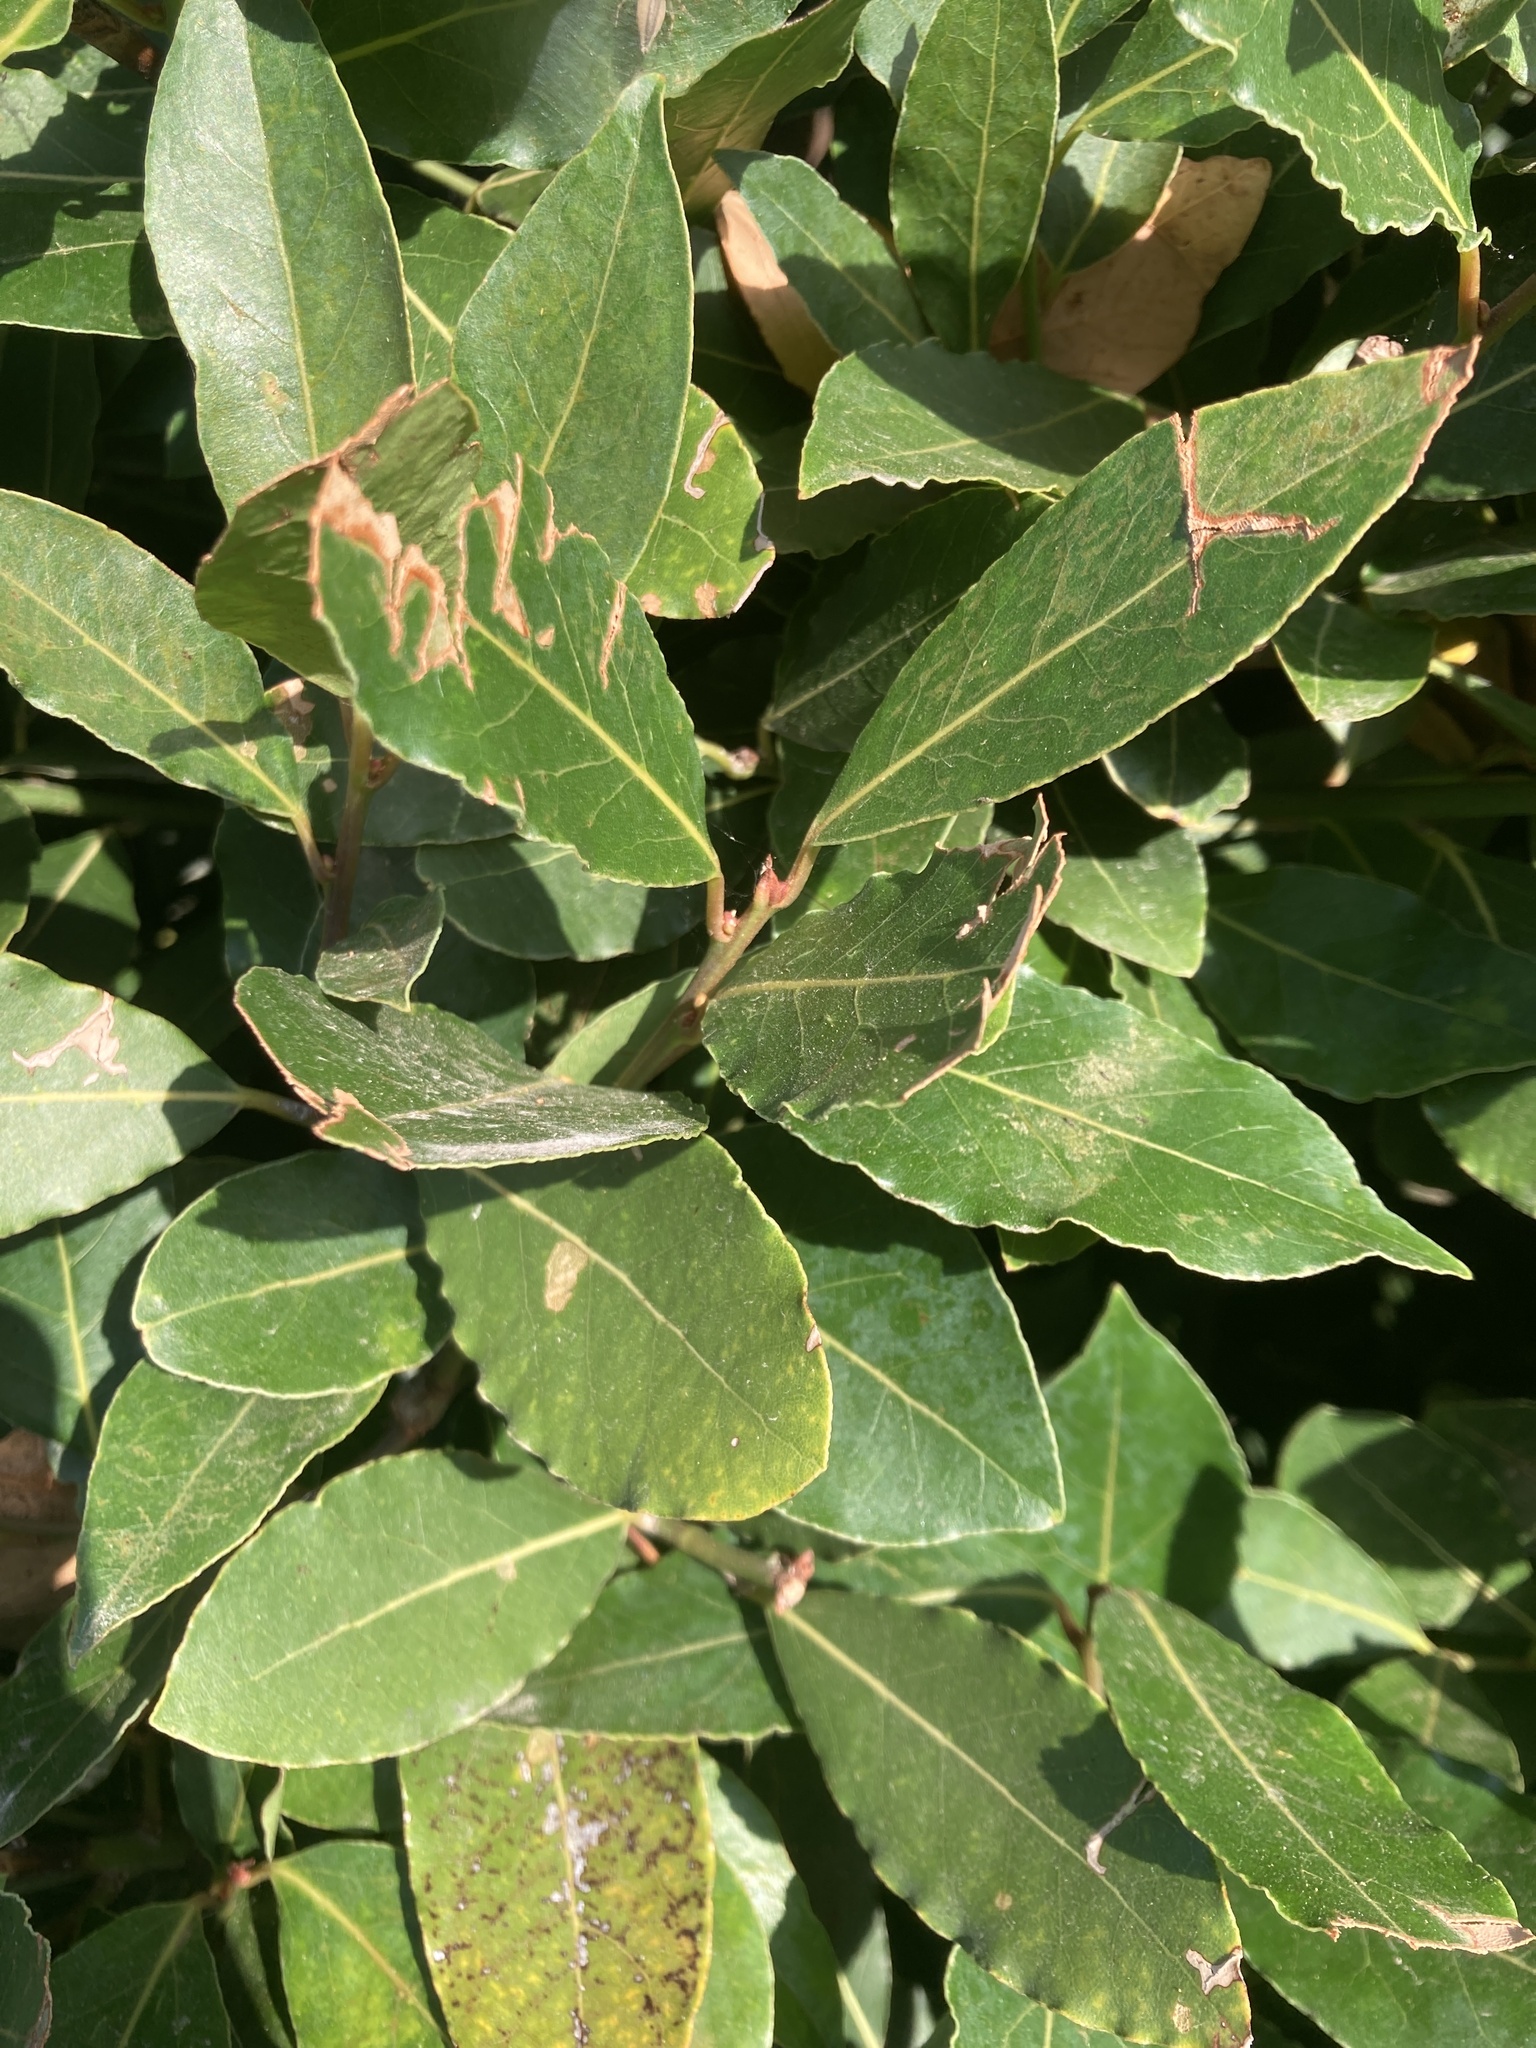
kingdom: Plantae
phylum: Tracheophyta
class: Magnoliopsida
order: Laurales
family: Lauraceae
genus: Laurus
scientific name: Laurus nobilis
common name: Bay
